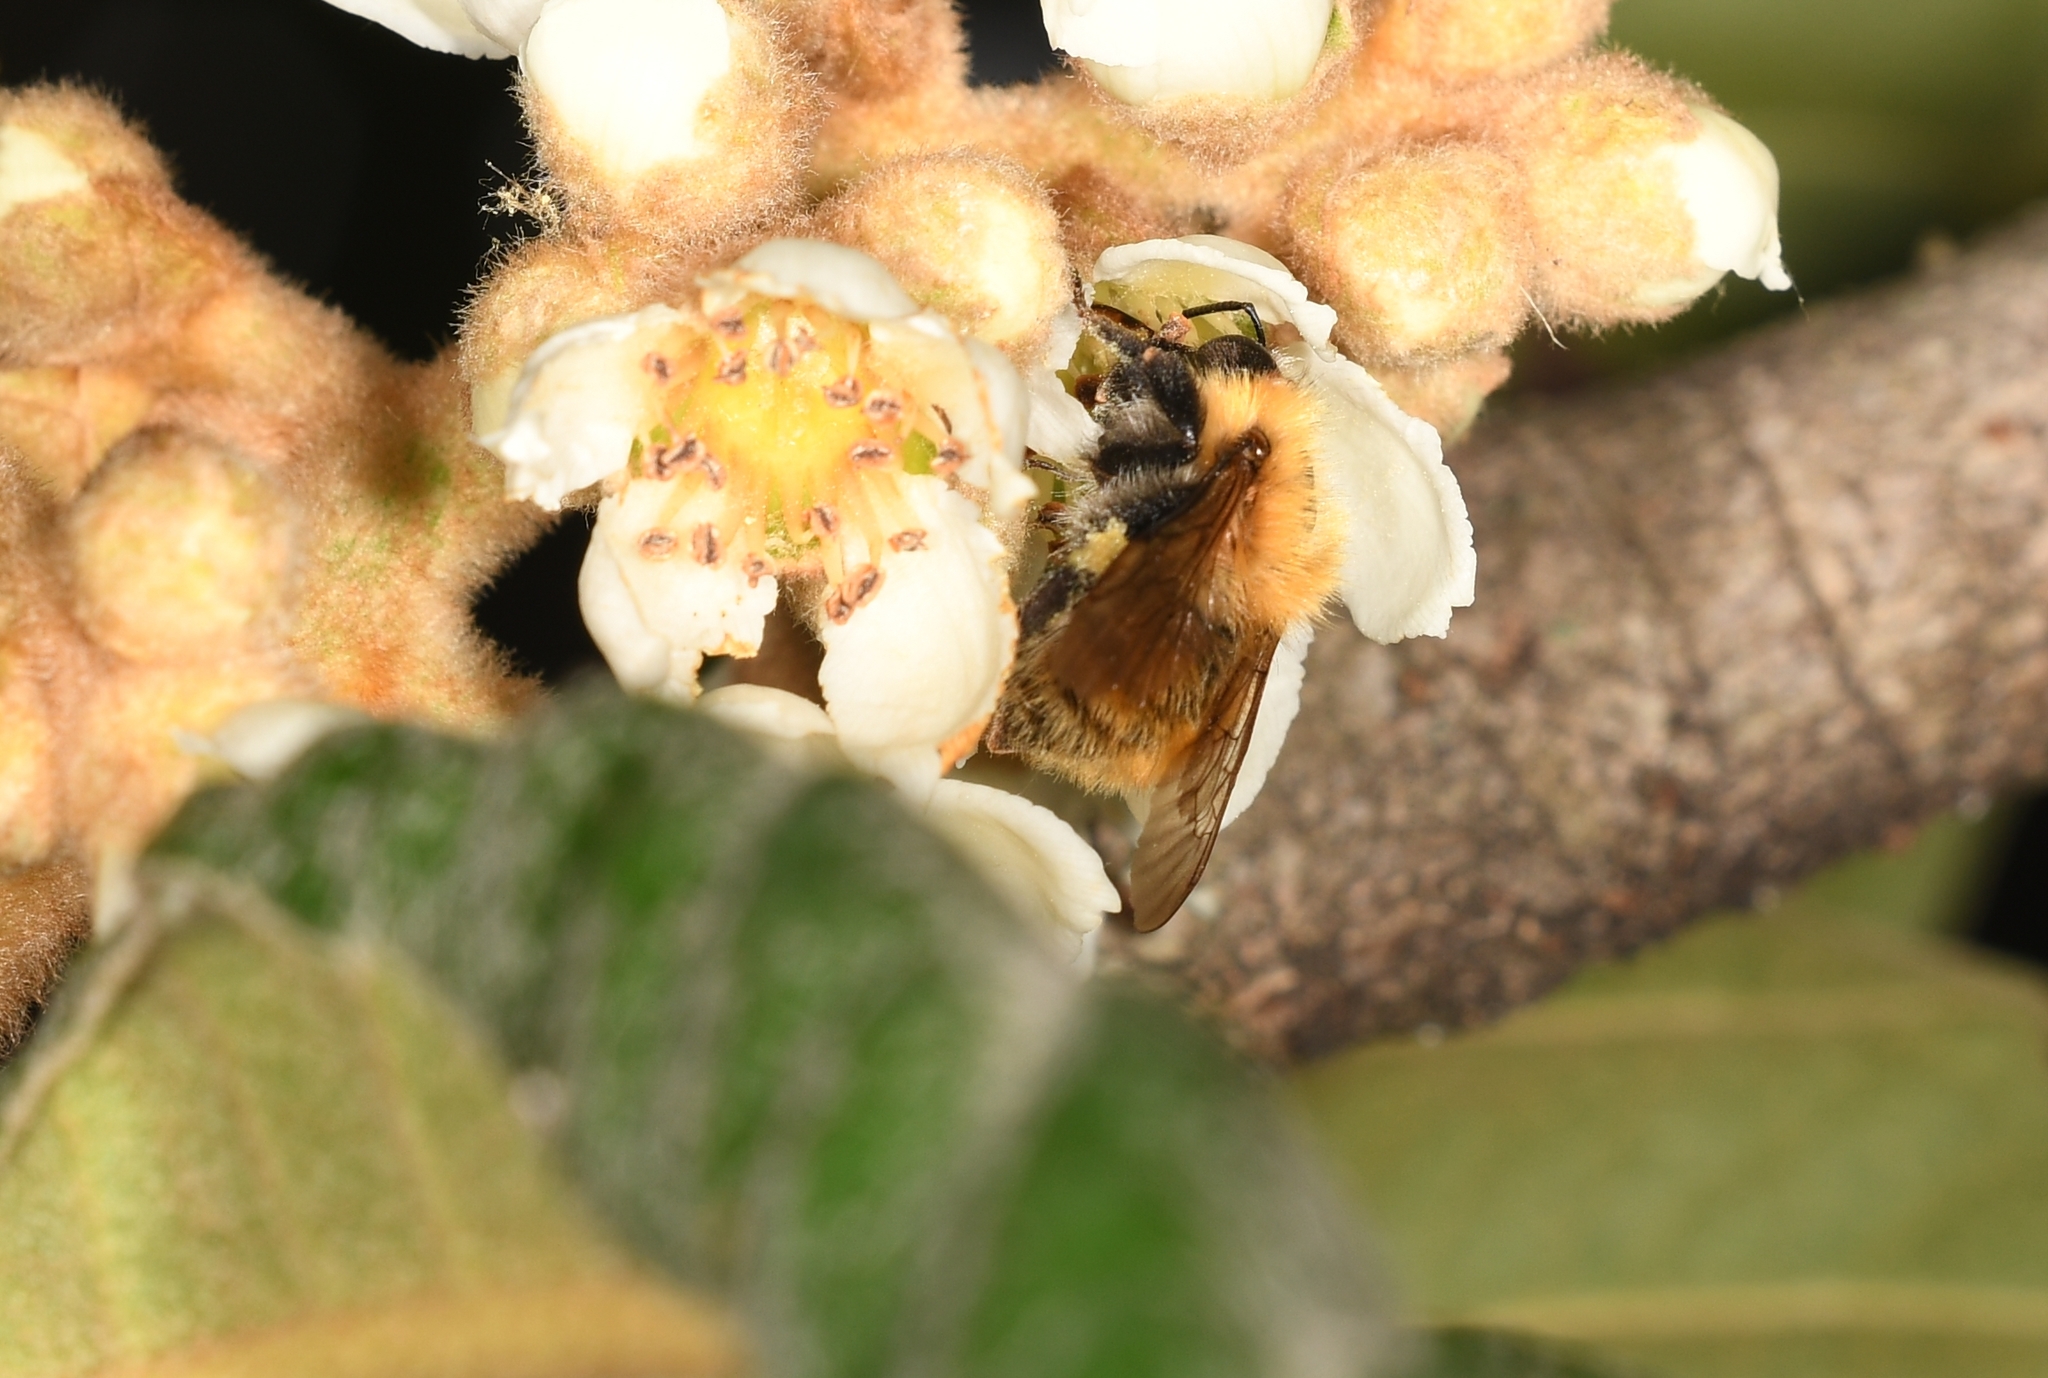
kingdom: Animalia
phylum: Arthropoda
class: Insecta
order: Hymenoptera
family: Apidae
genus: Bombus
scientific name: Bombus pascuorum
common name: Common carder bee
